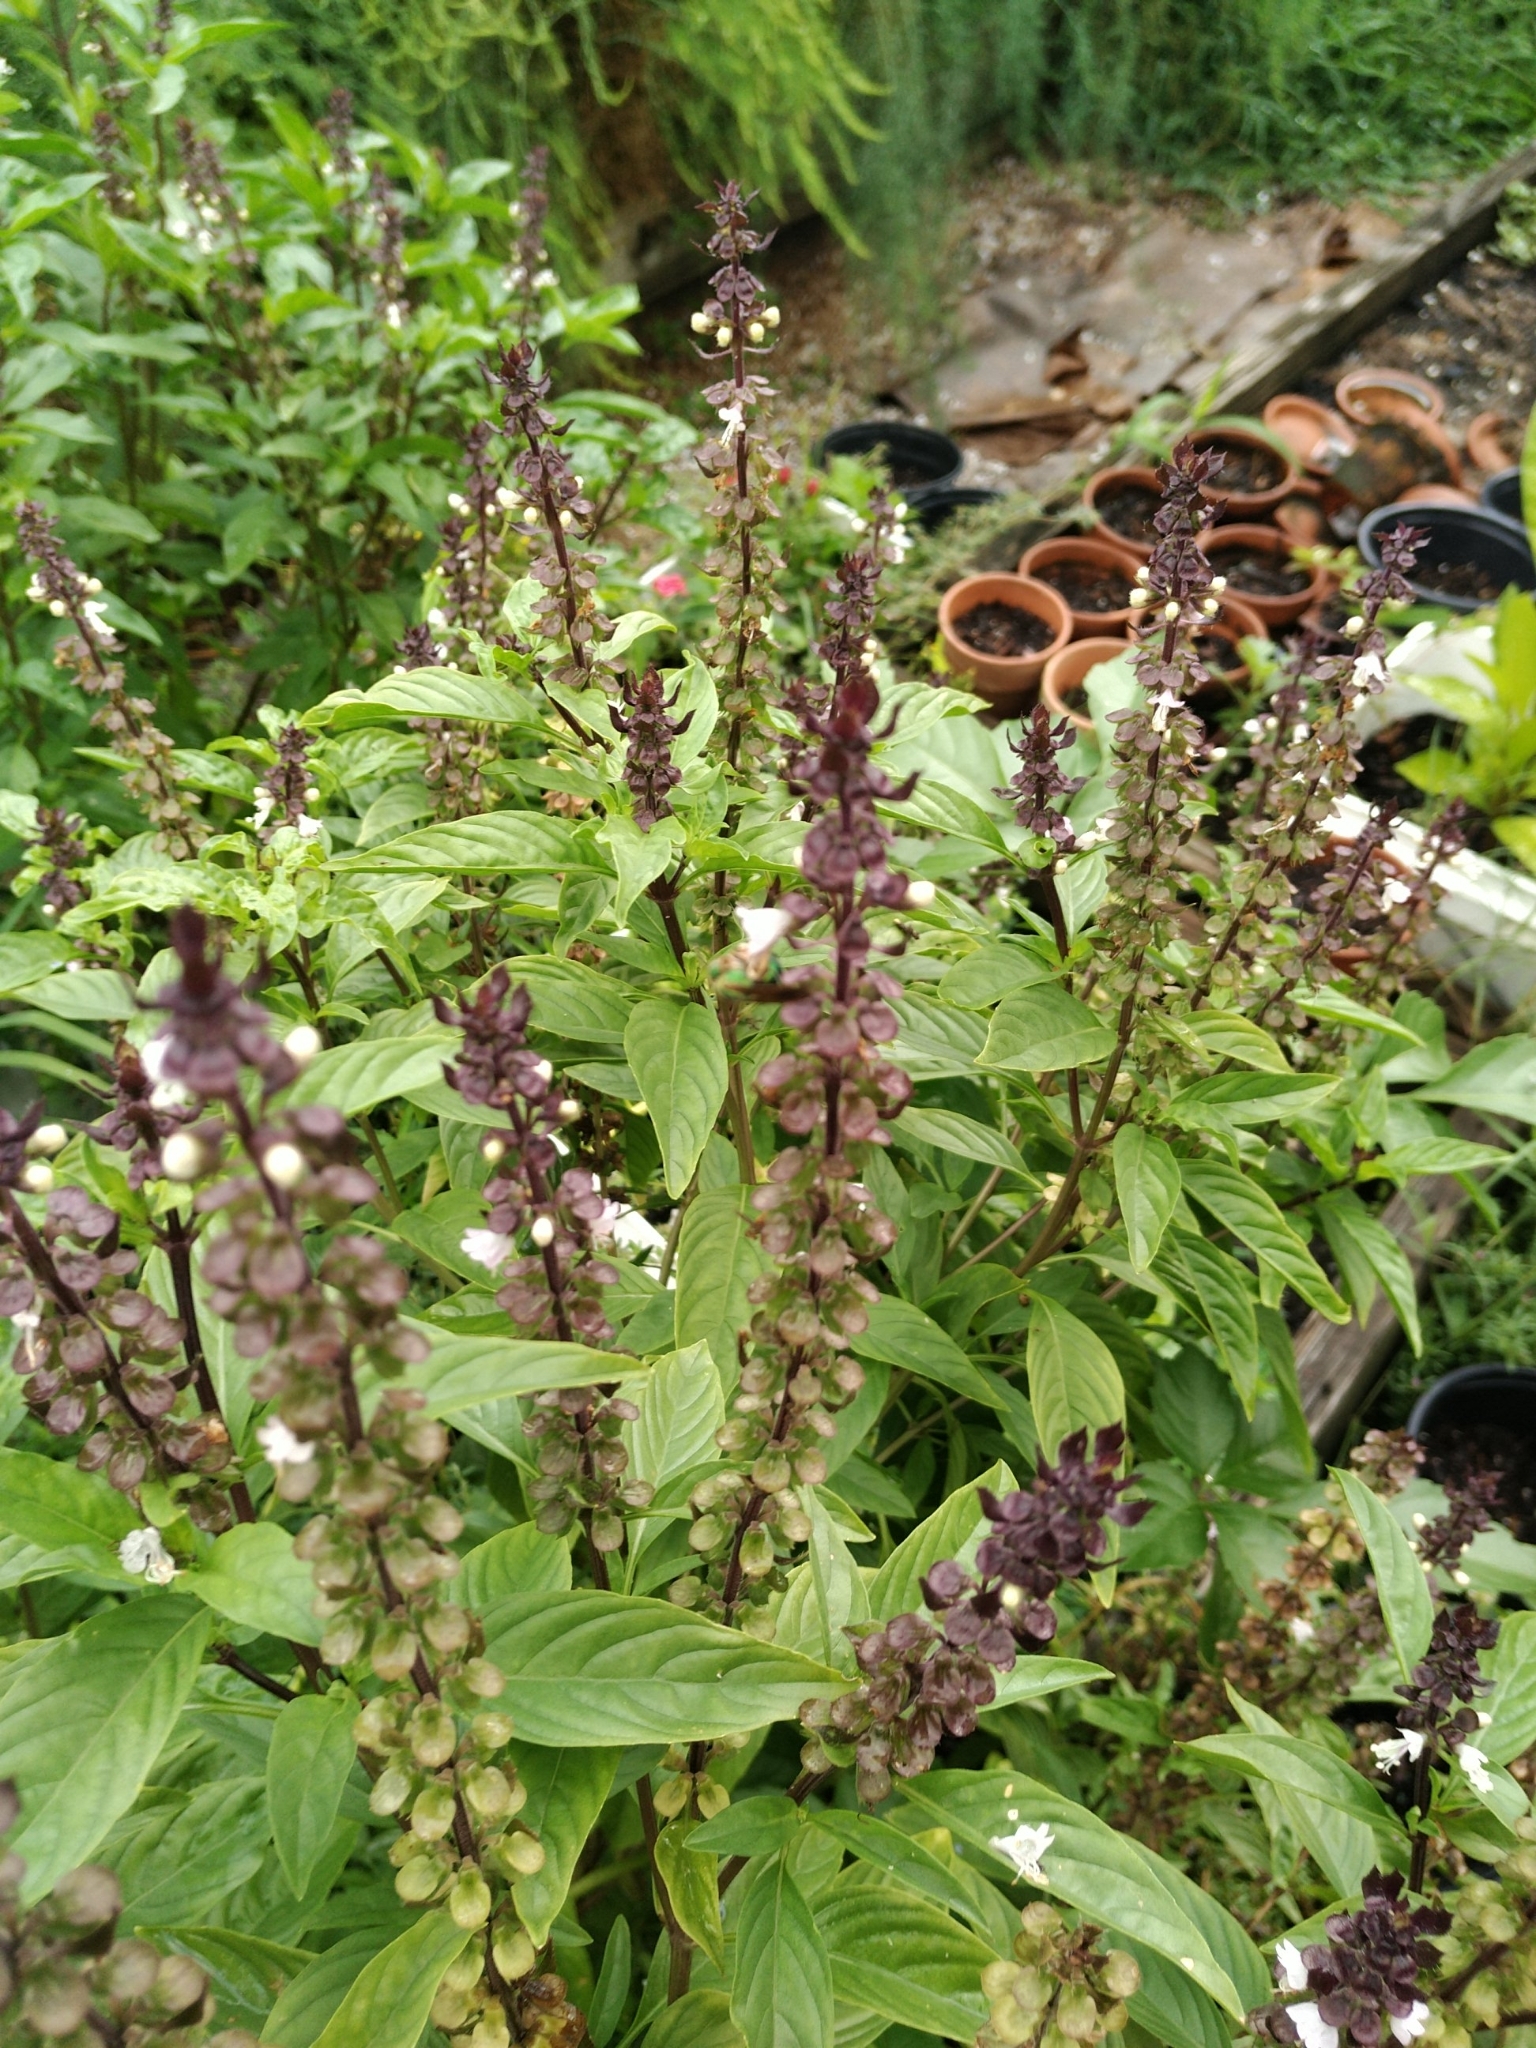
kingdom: Animalia
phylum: Arthropoda
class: Insecta
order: Hymenoptera
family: Halictidae
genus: Agapostemon
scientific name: Agapostemon splendens
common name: Brown-winged striped sweat bee
